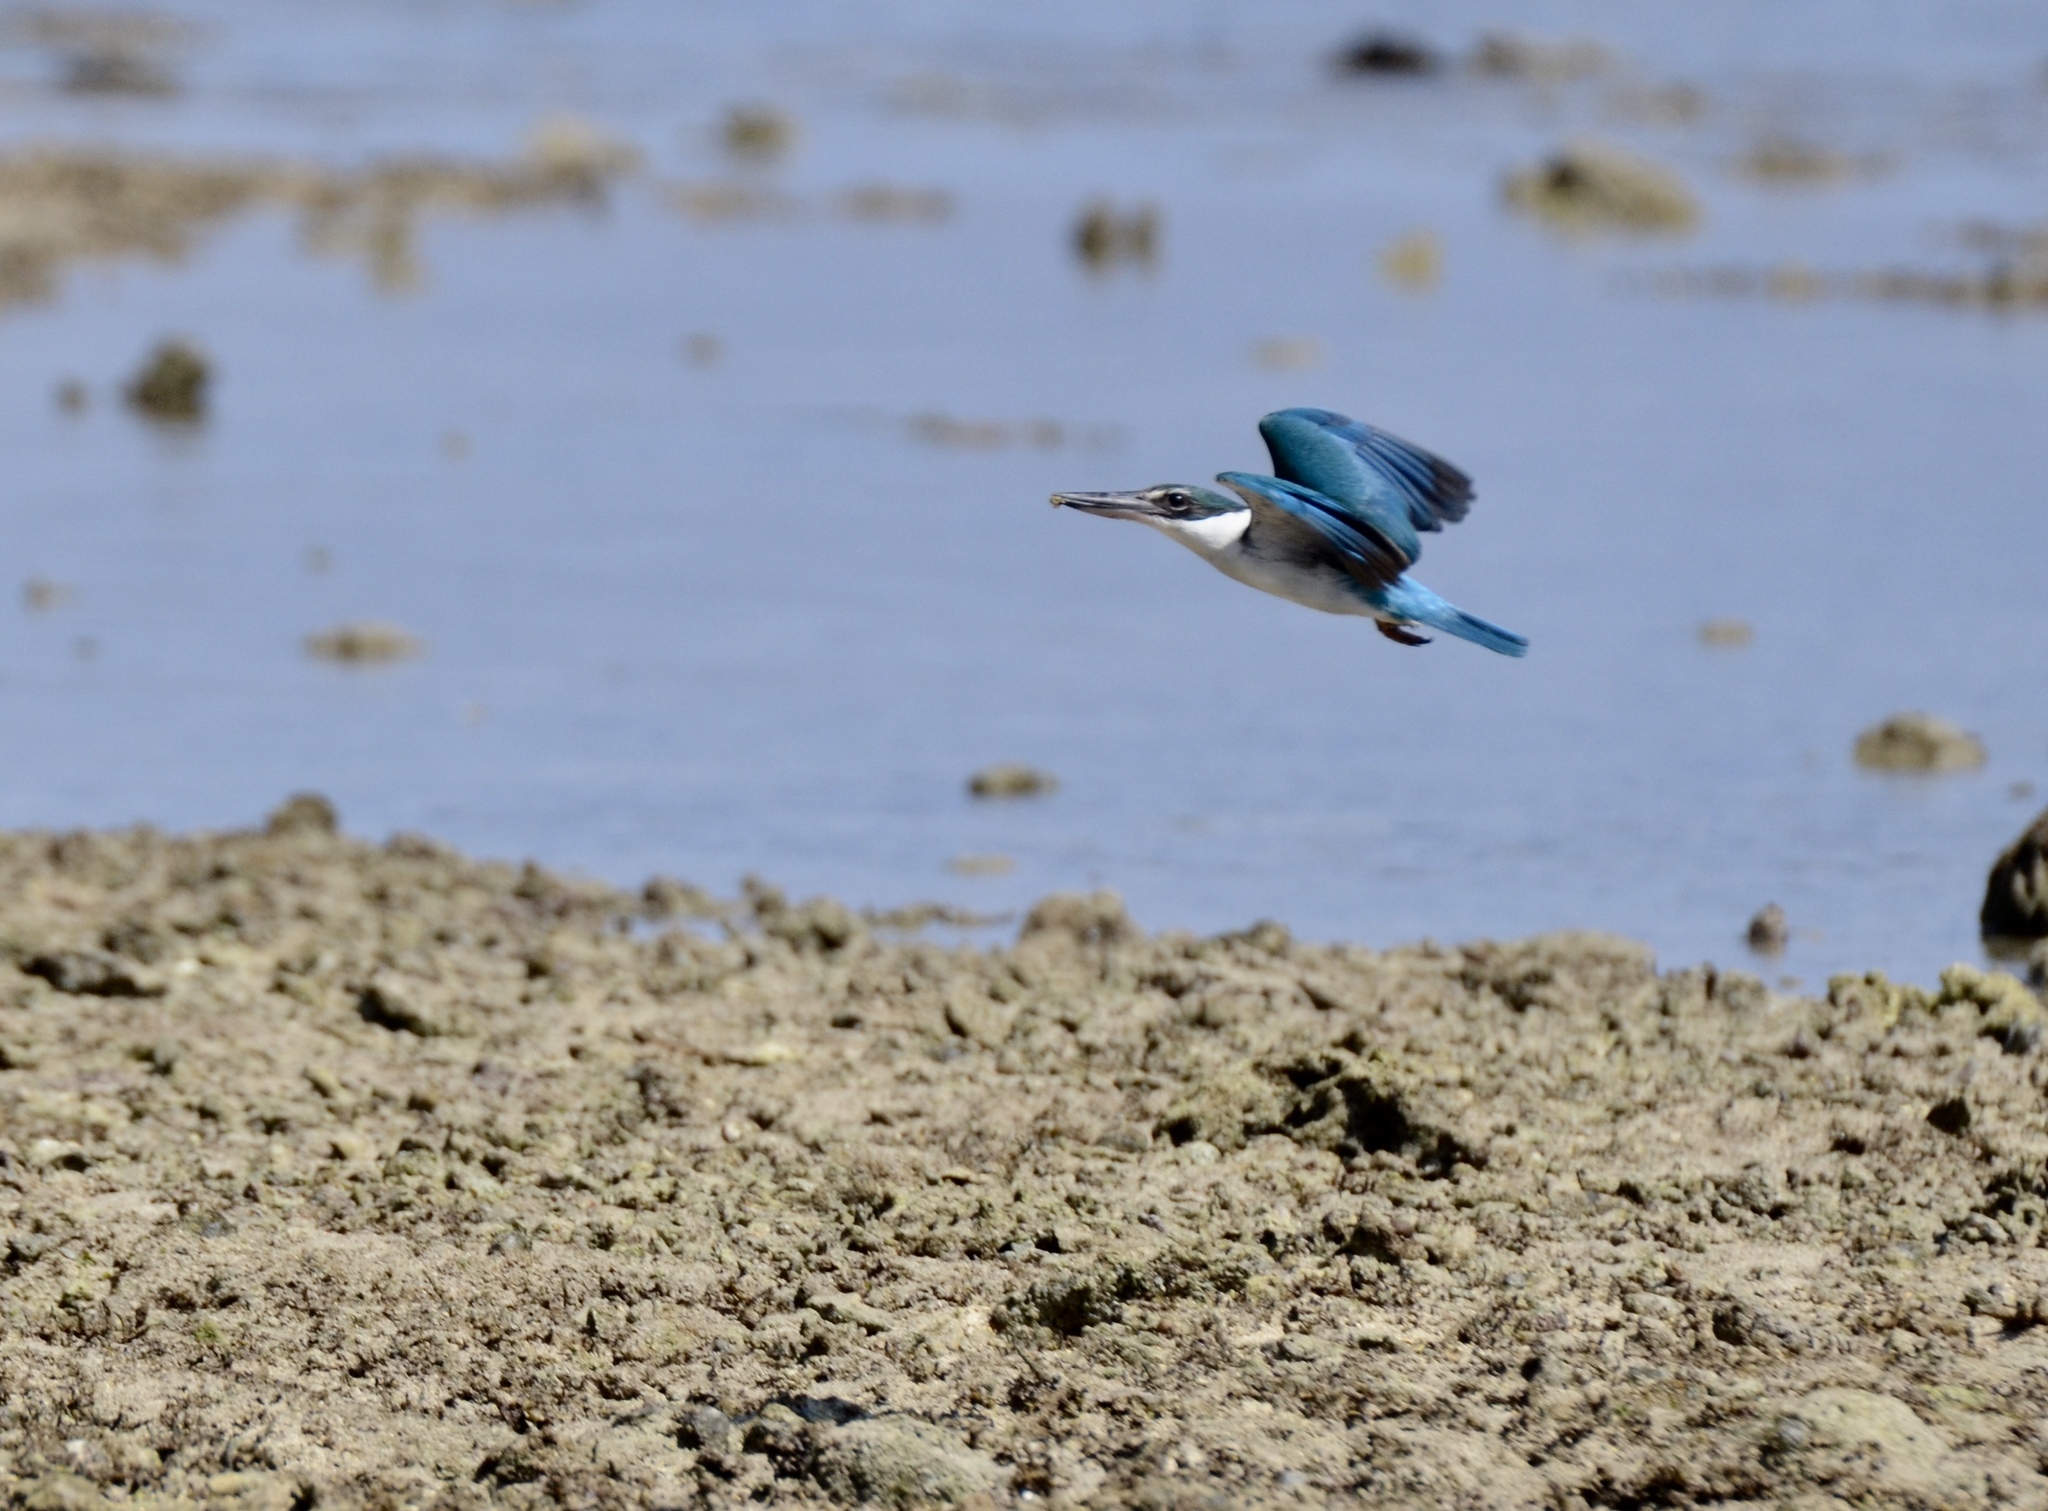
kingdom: Animalia
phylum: Chordata
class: Aves
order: Coraciiformes
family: Alcedinidae
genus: Todiramphus
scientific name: Todiramphus chloris
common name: Collared kingfisher
